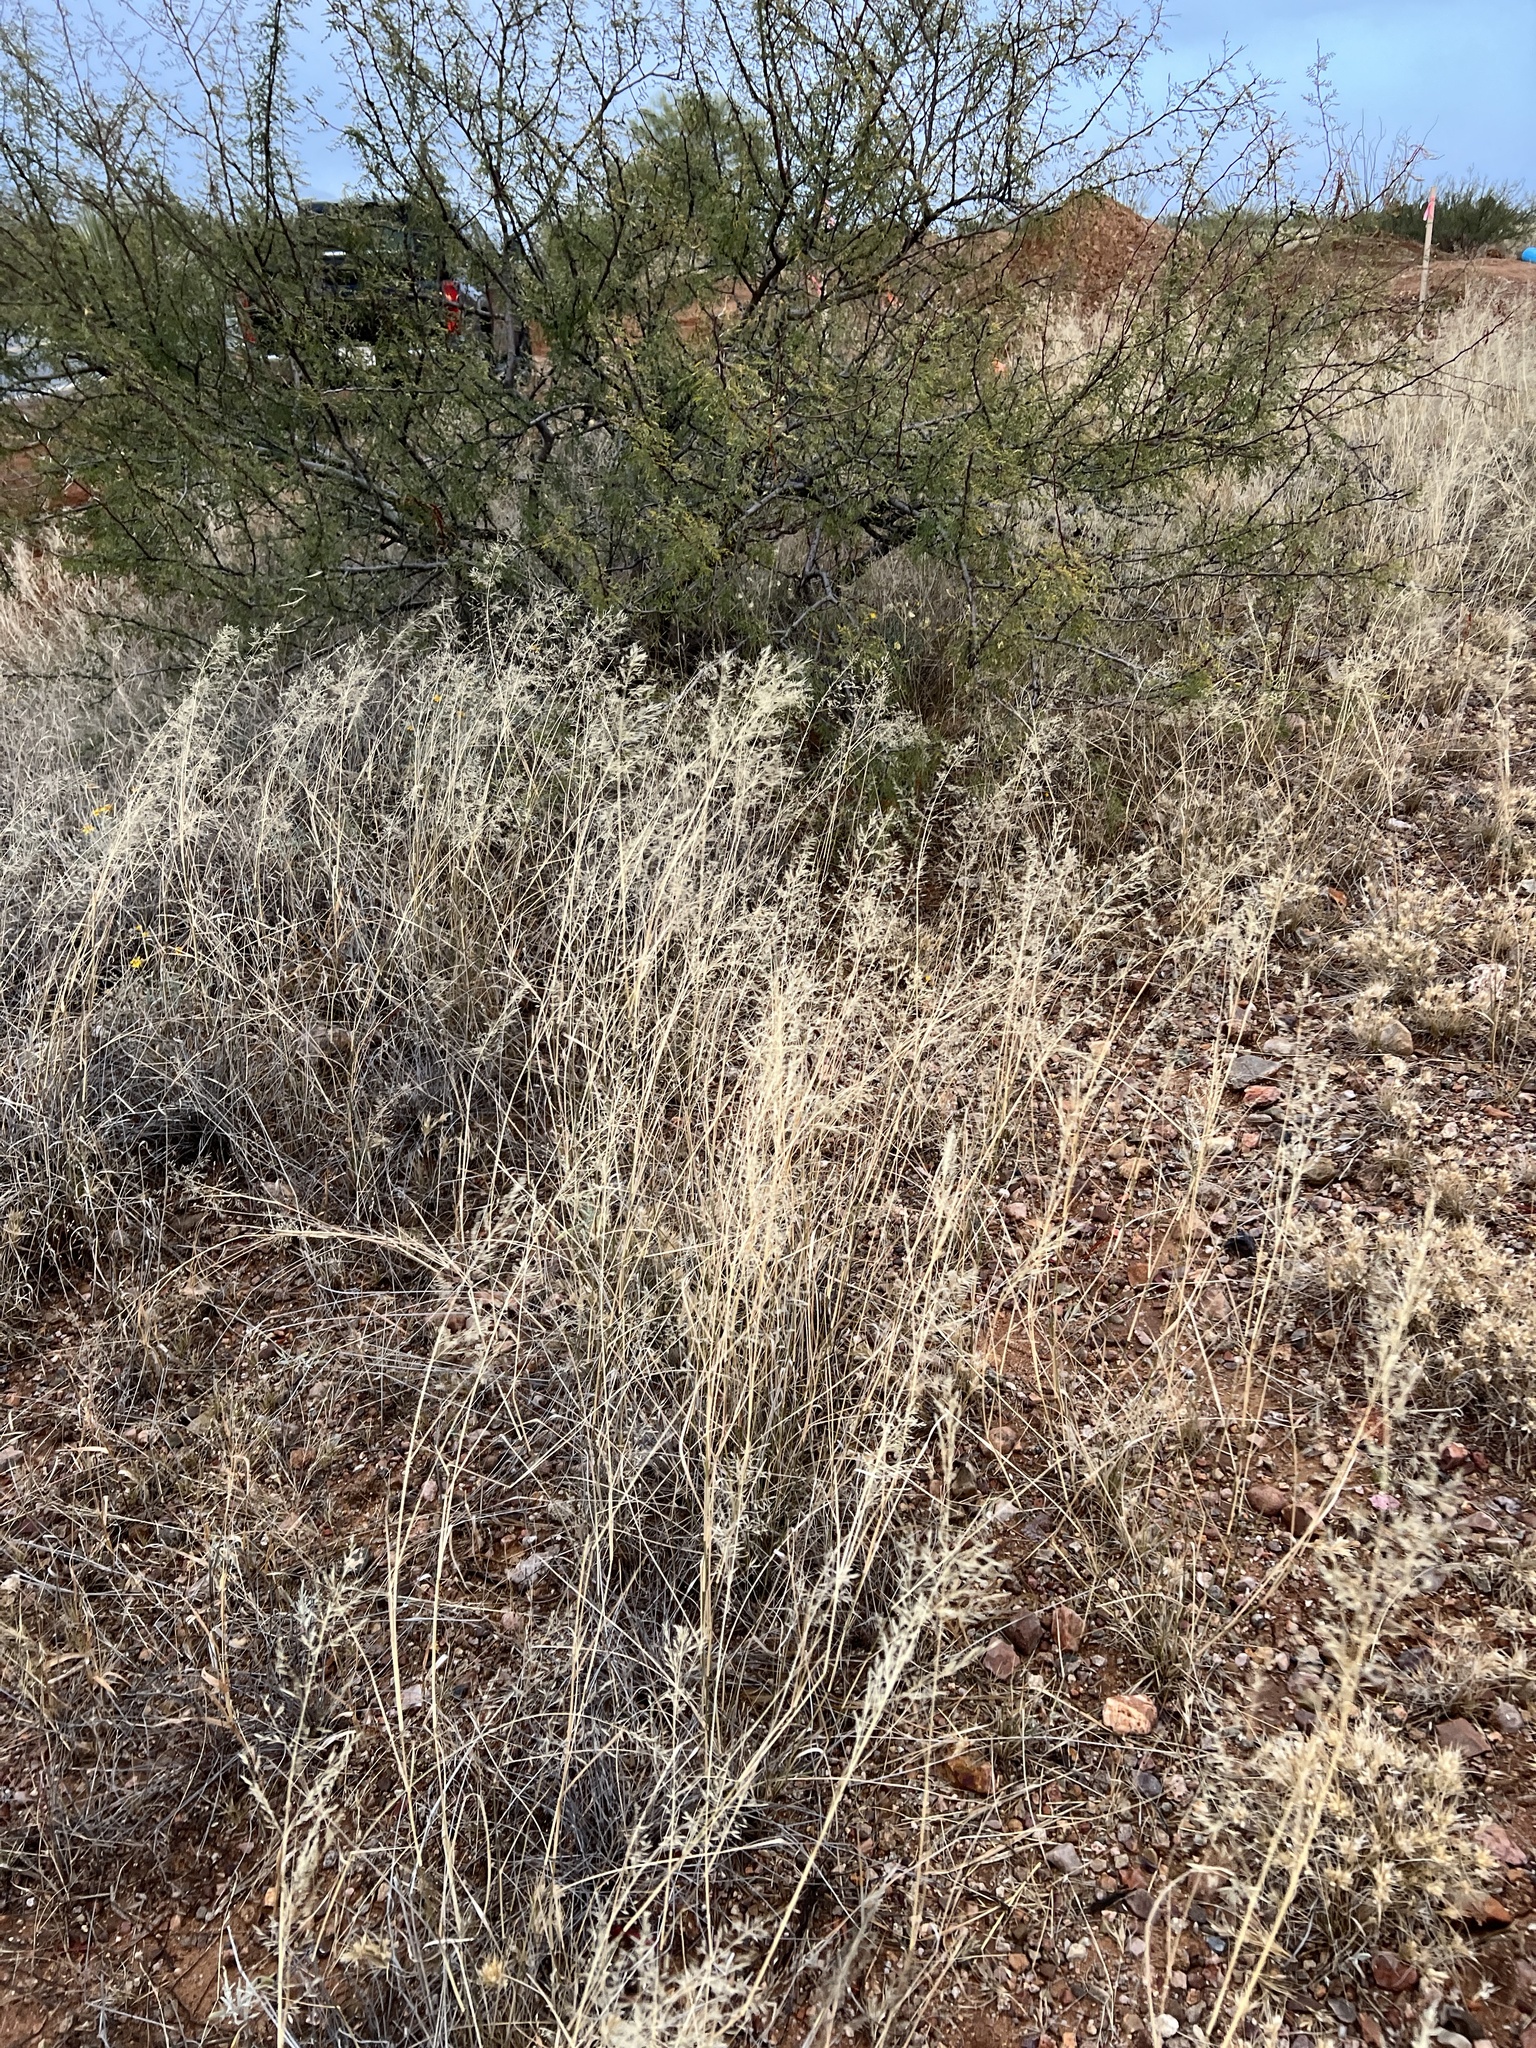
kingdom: Plantae
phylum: Tracheophyta
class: Liliopsida
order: Poales
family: Poaceae
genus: Eragrostis
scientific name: Eragrostis lehmanniana
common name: Lehmann lovegrass
